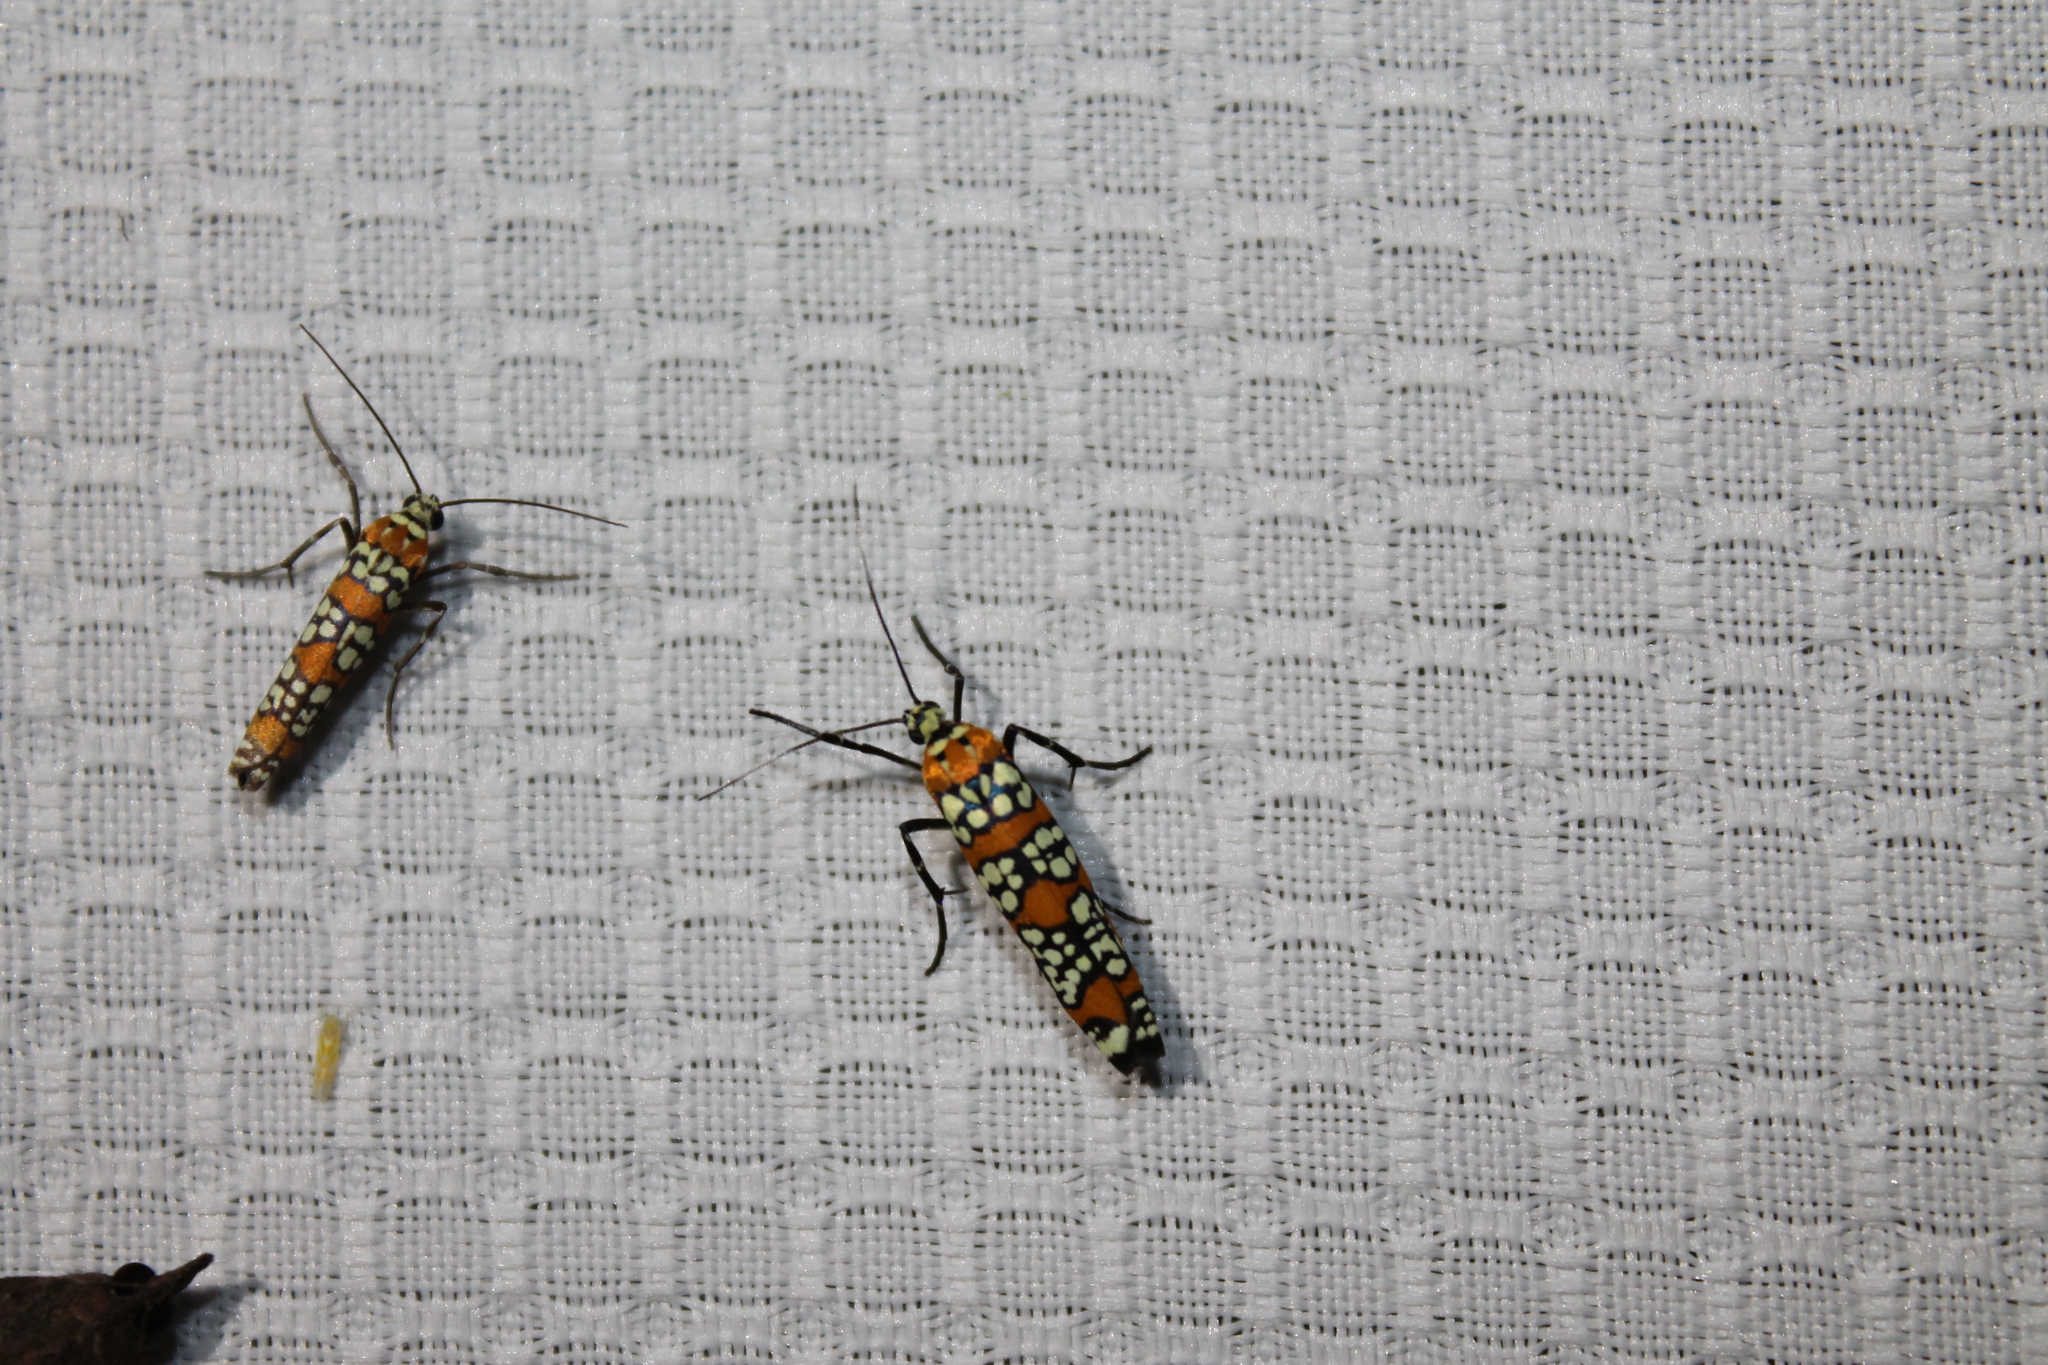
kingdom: Animalia
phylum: Arthropoda
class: Insecta
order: Lepidoptera
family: Attevidae
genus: Atteva
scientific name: Atteva punctella
